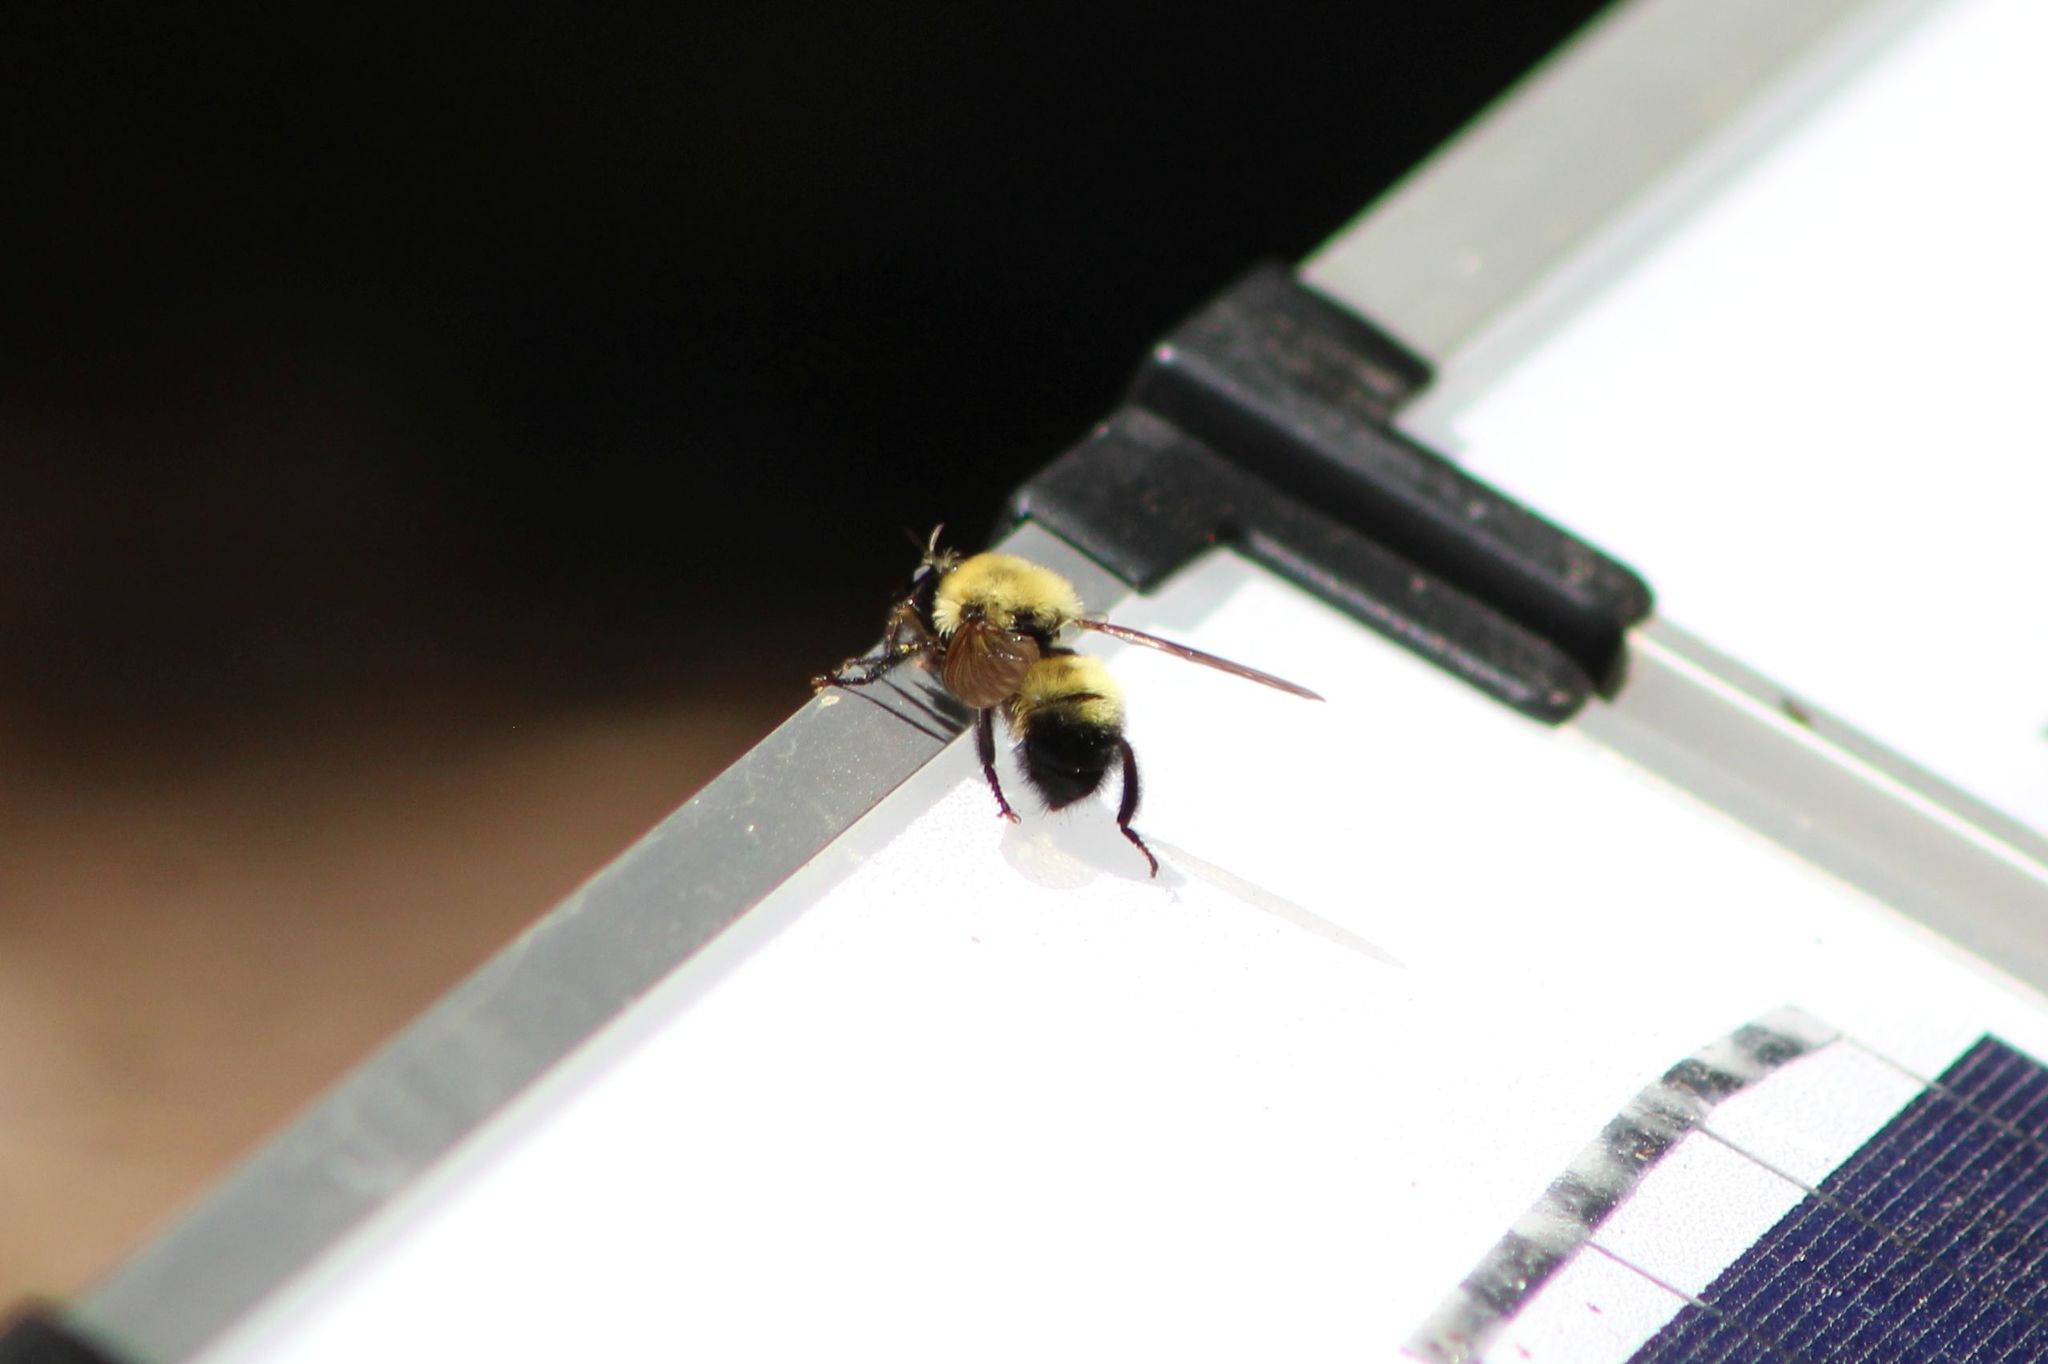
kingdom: Animalia
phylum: Arthropoda
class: Insecta
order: Diptera
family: Asilidae
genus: Laphria
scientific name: Laphria thoracica
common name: Bumble bee mimic robber fly
